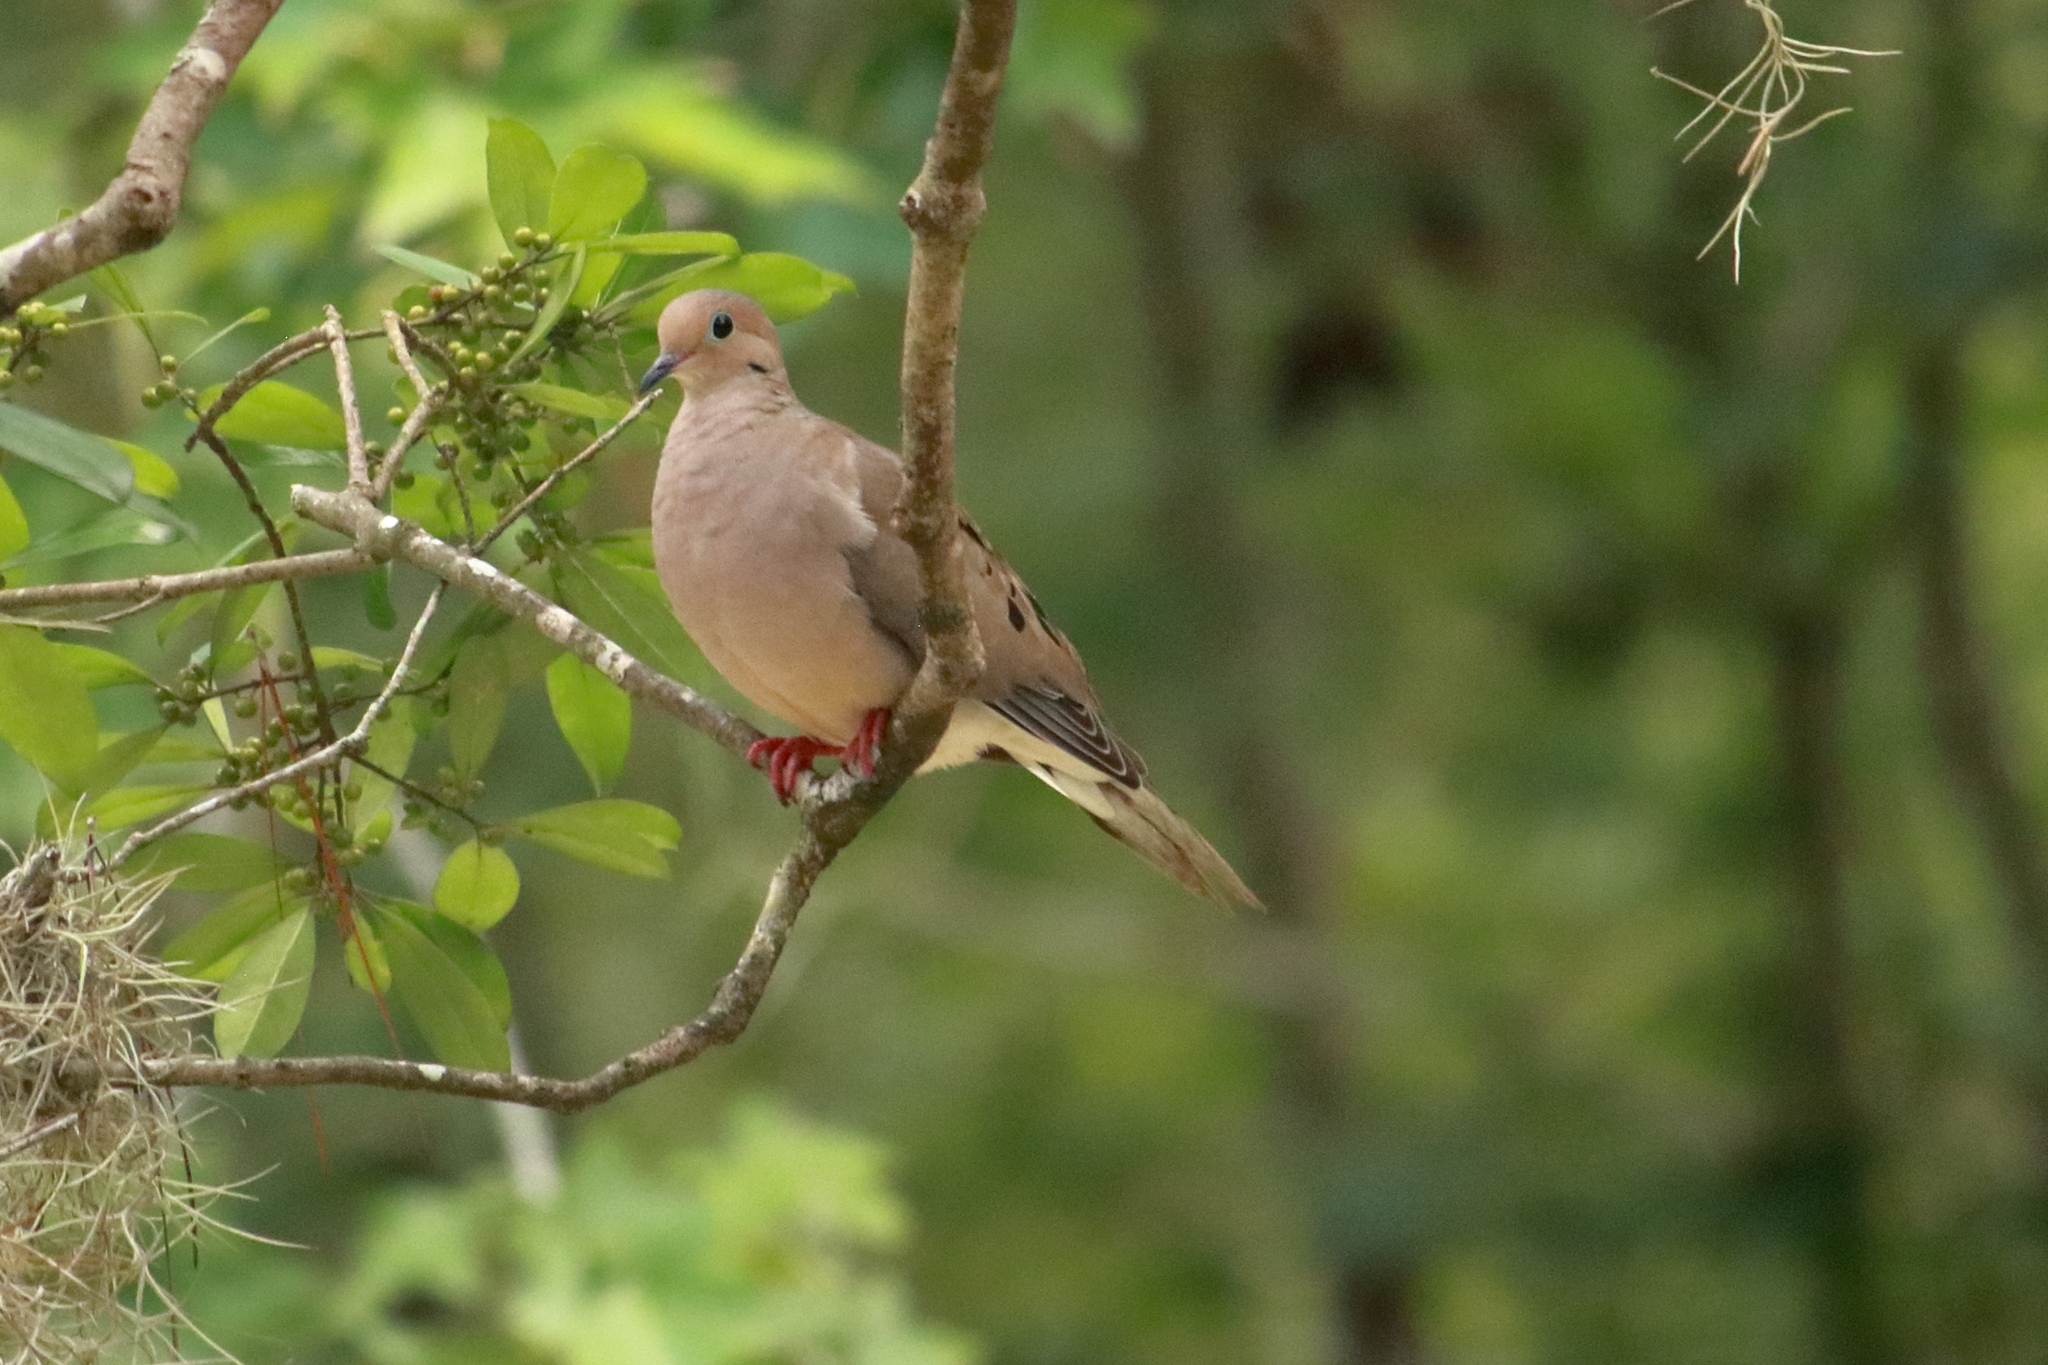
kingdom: Animalia
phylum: Chordata
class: Aves
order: Columbiformes
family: Columbidae
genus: Zenaida
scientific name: Zenaida macroura
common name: Mourning dove
